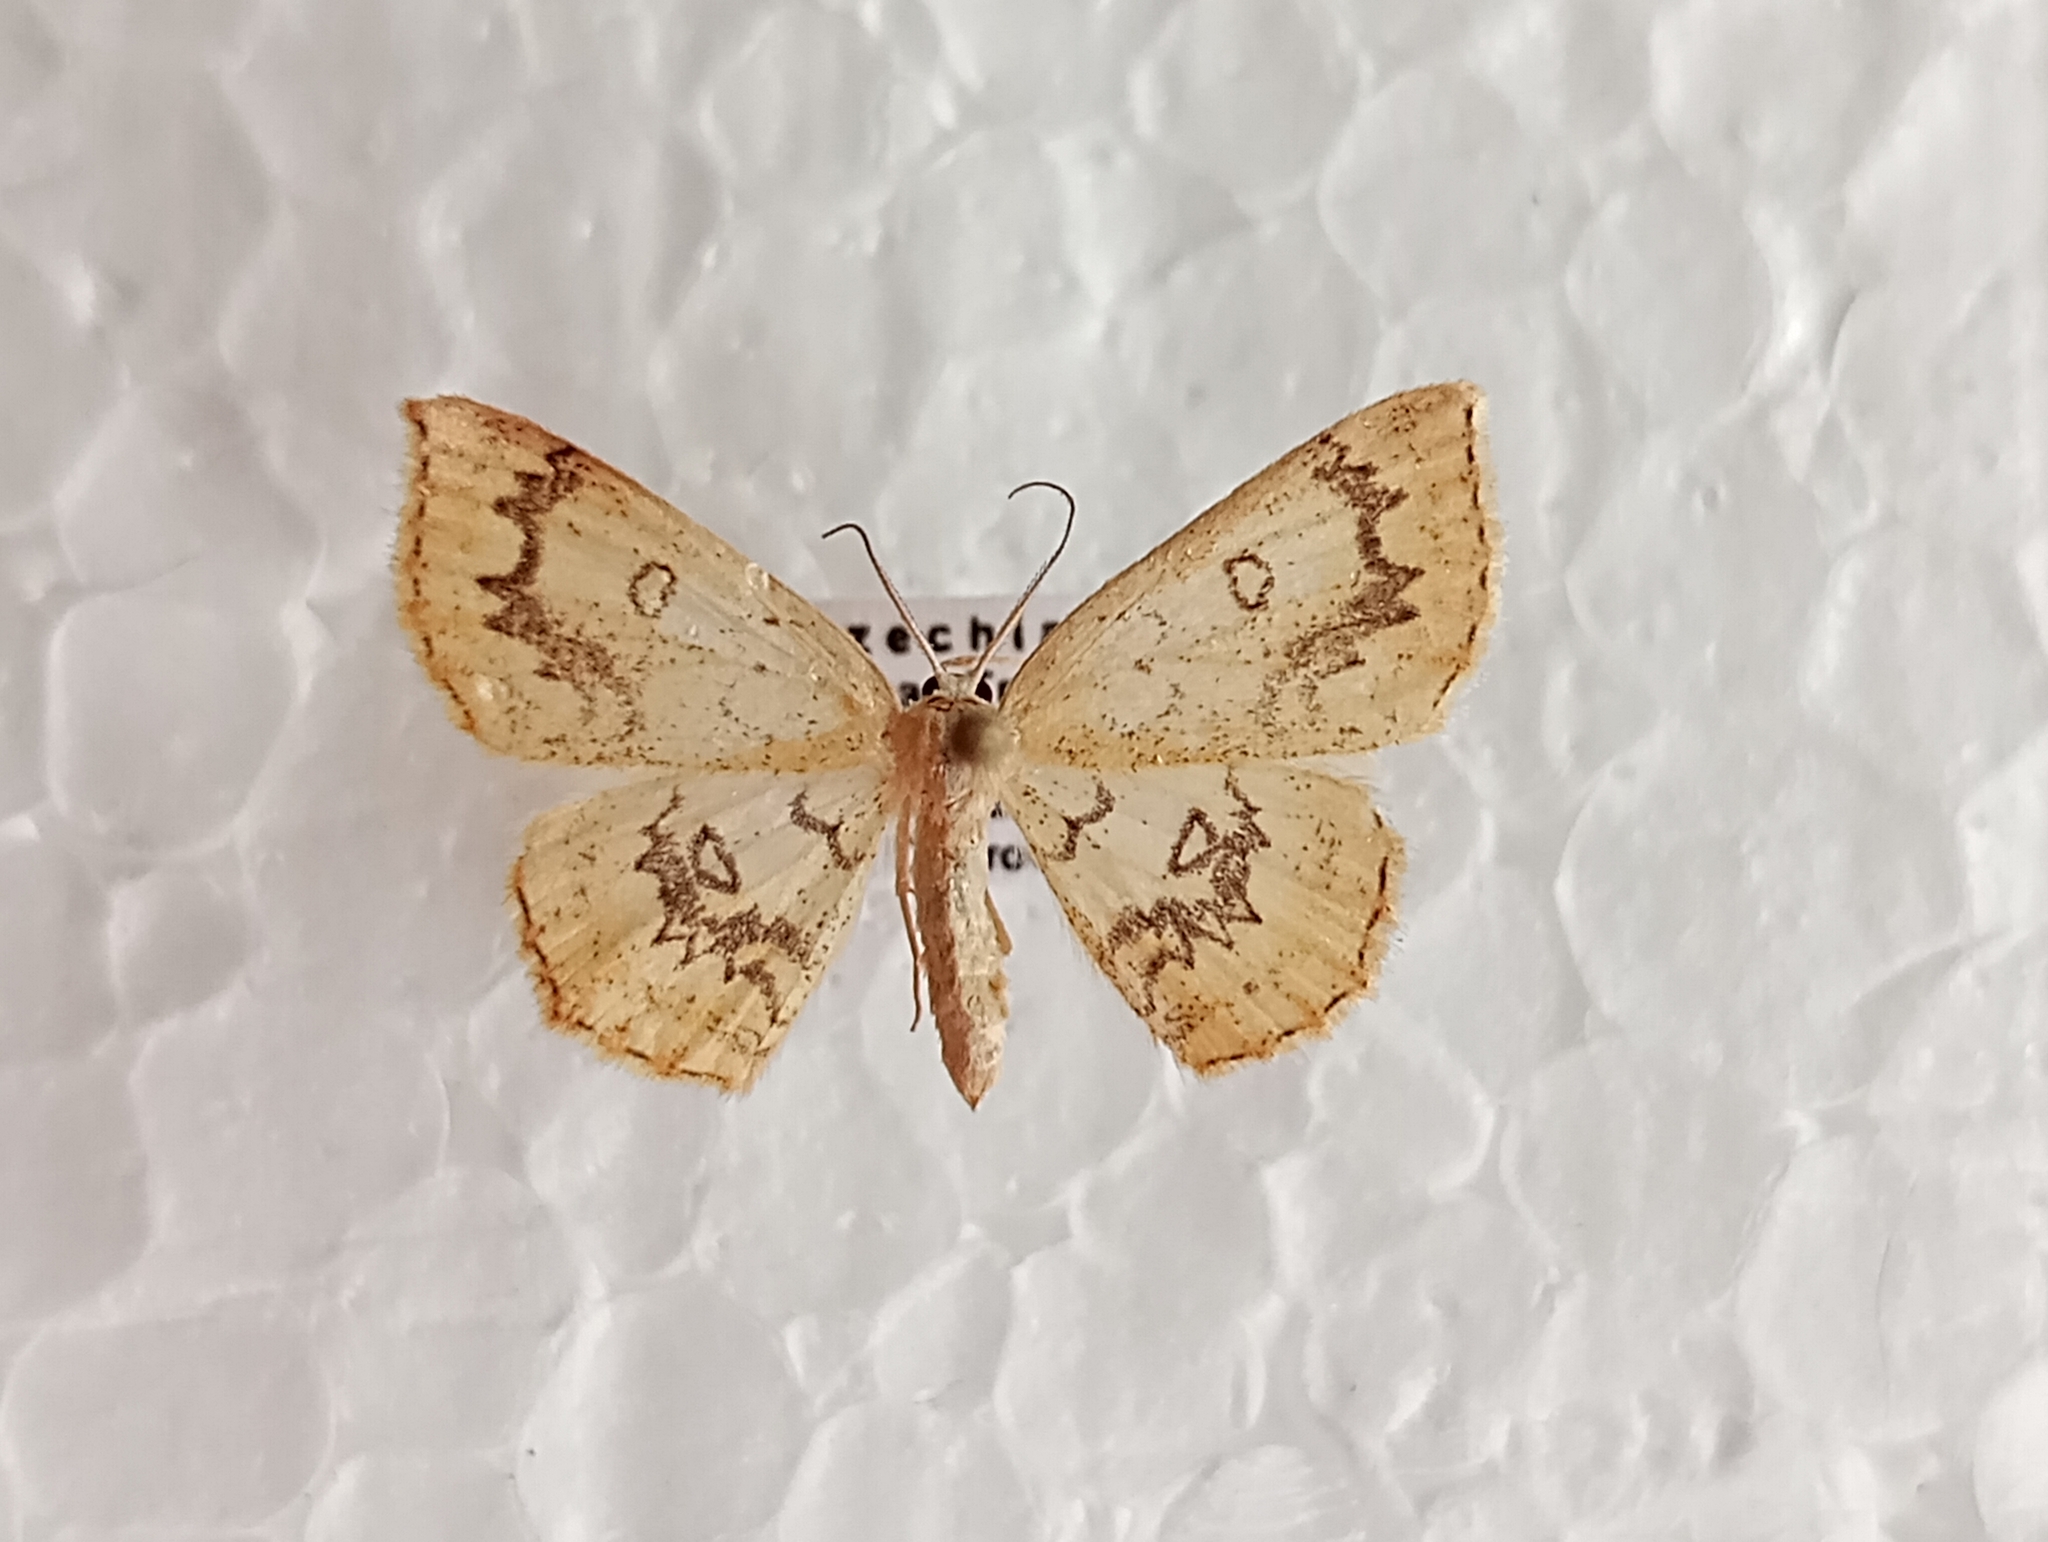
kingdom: Animalia
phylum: Arthropoda
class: Insecta
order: Lepidoptera
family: Geometridae
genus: Cyclophora
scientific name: Cyclophora annularia
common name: Mocha
